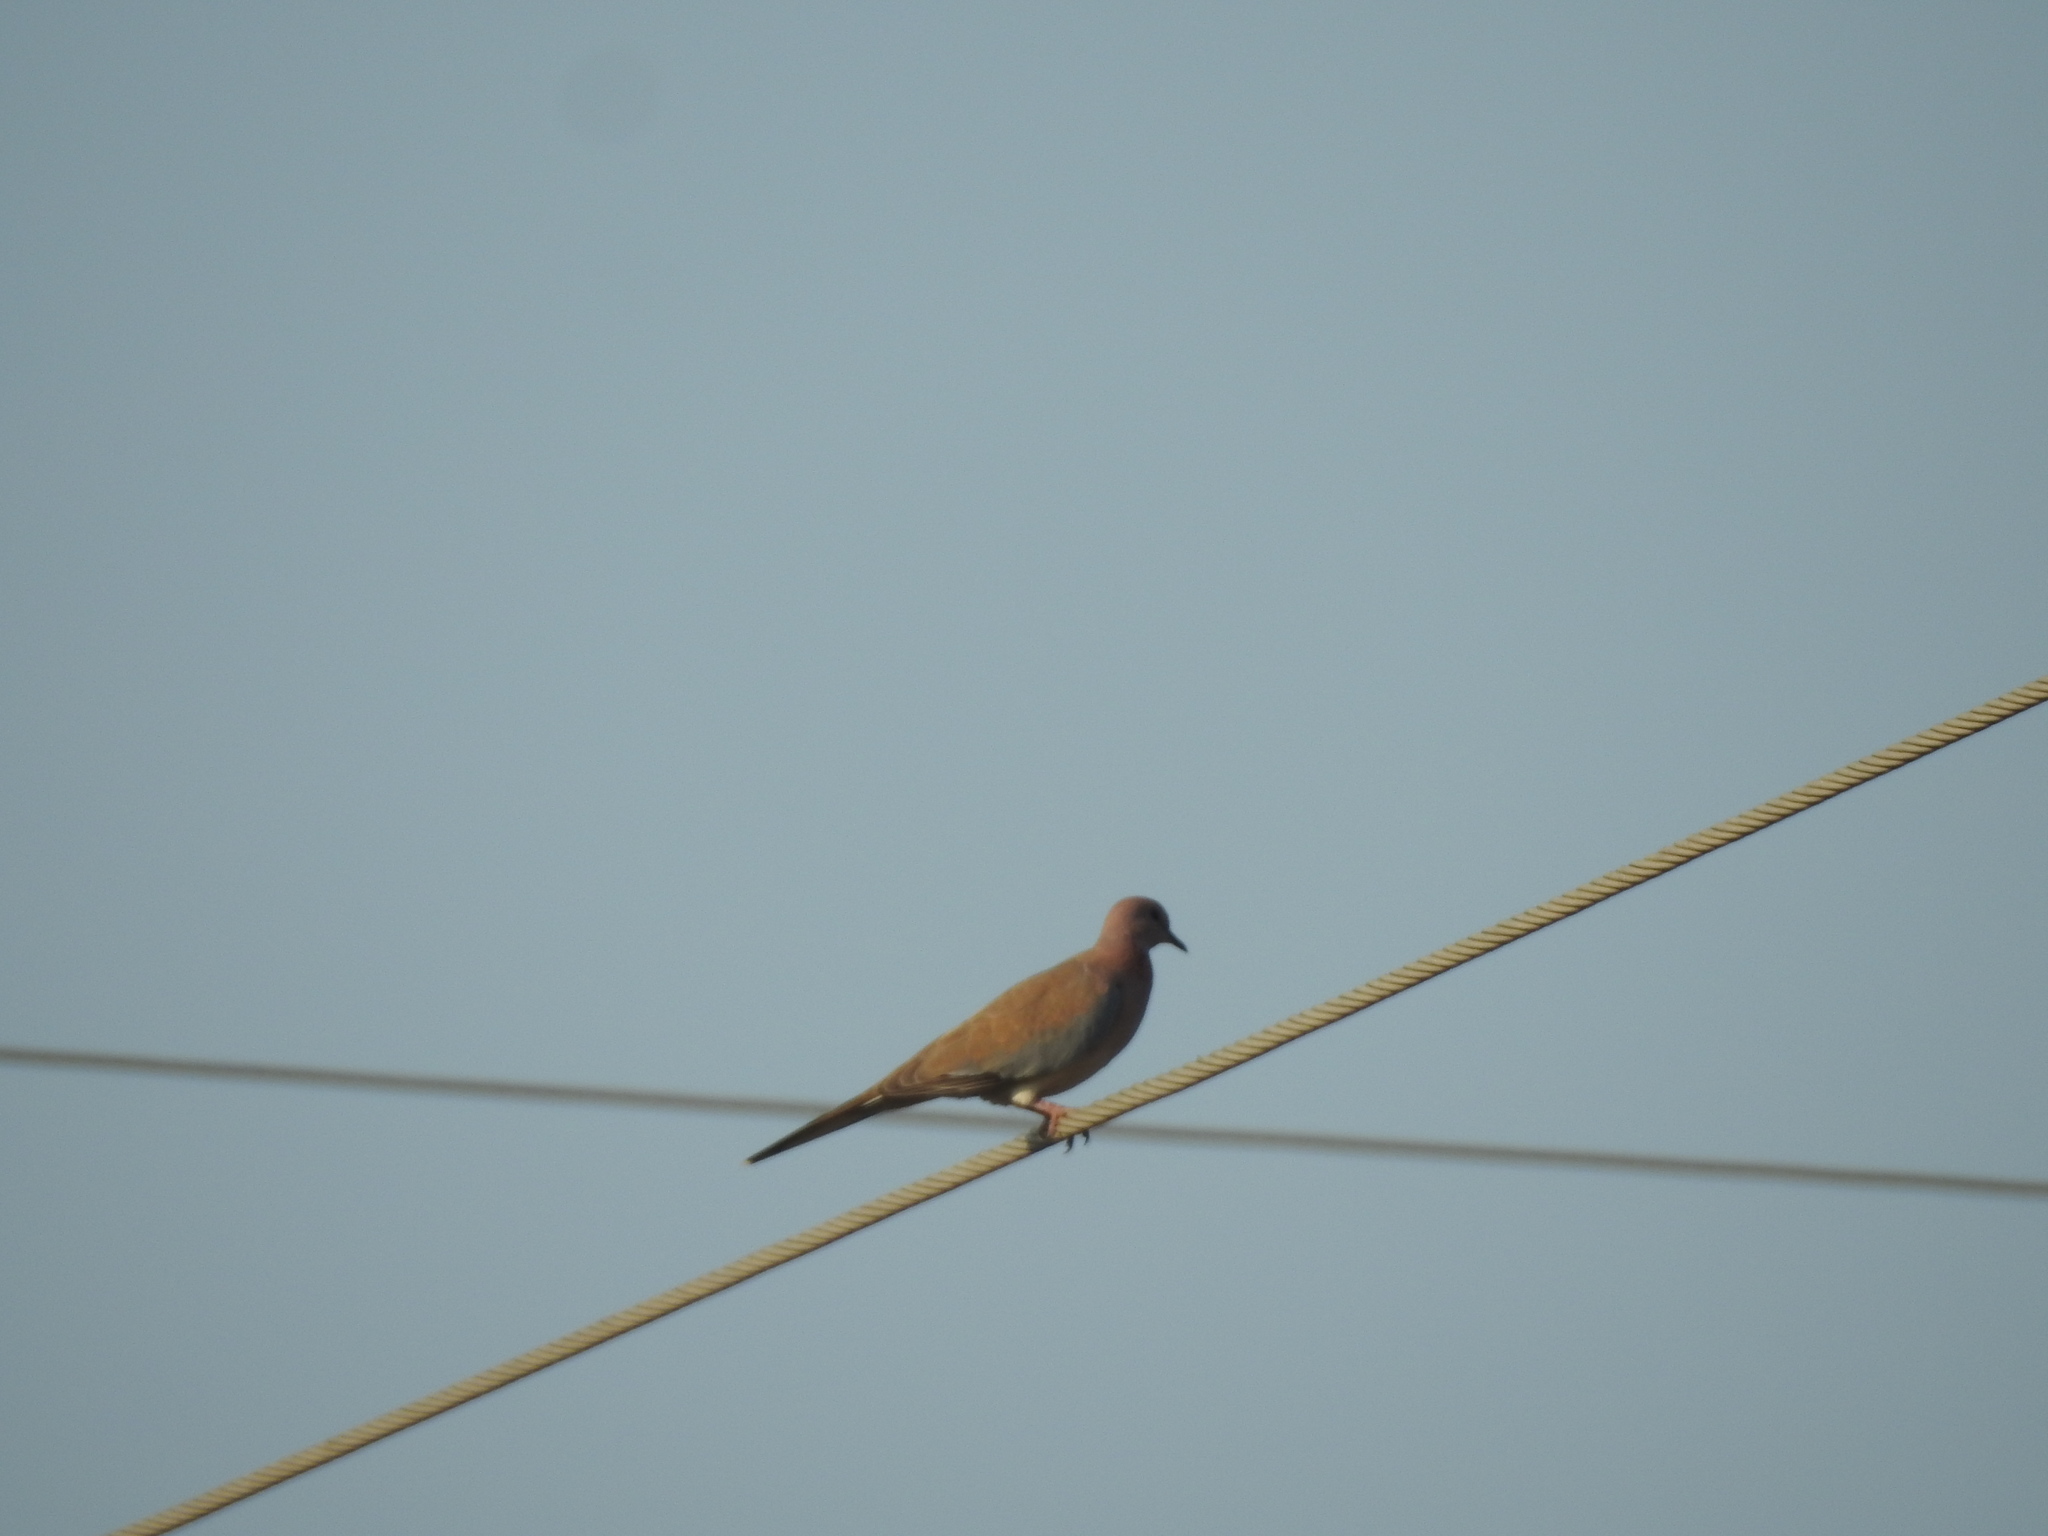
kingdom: Animalia
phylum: Chordata
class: Aves
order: Columbiformes
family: Columbidae
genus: Spilopelia
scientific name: Spilopelia senegalensis
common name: Laughing dove
